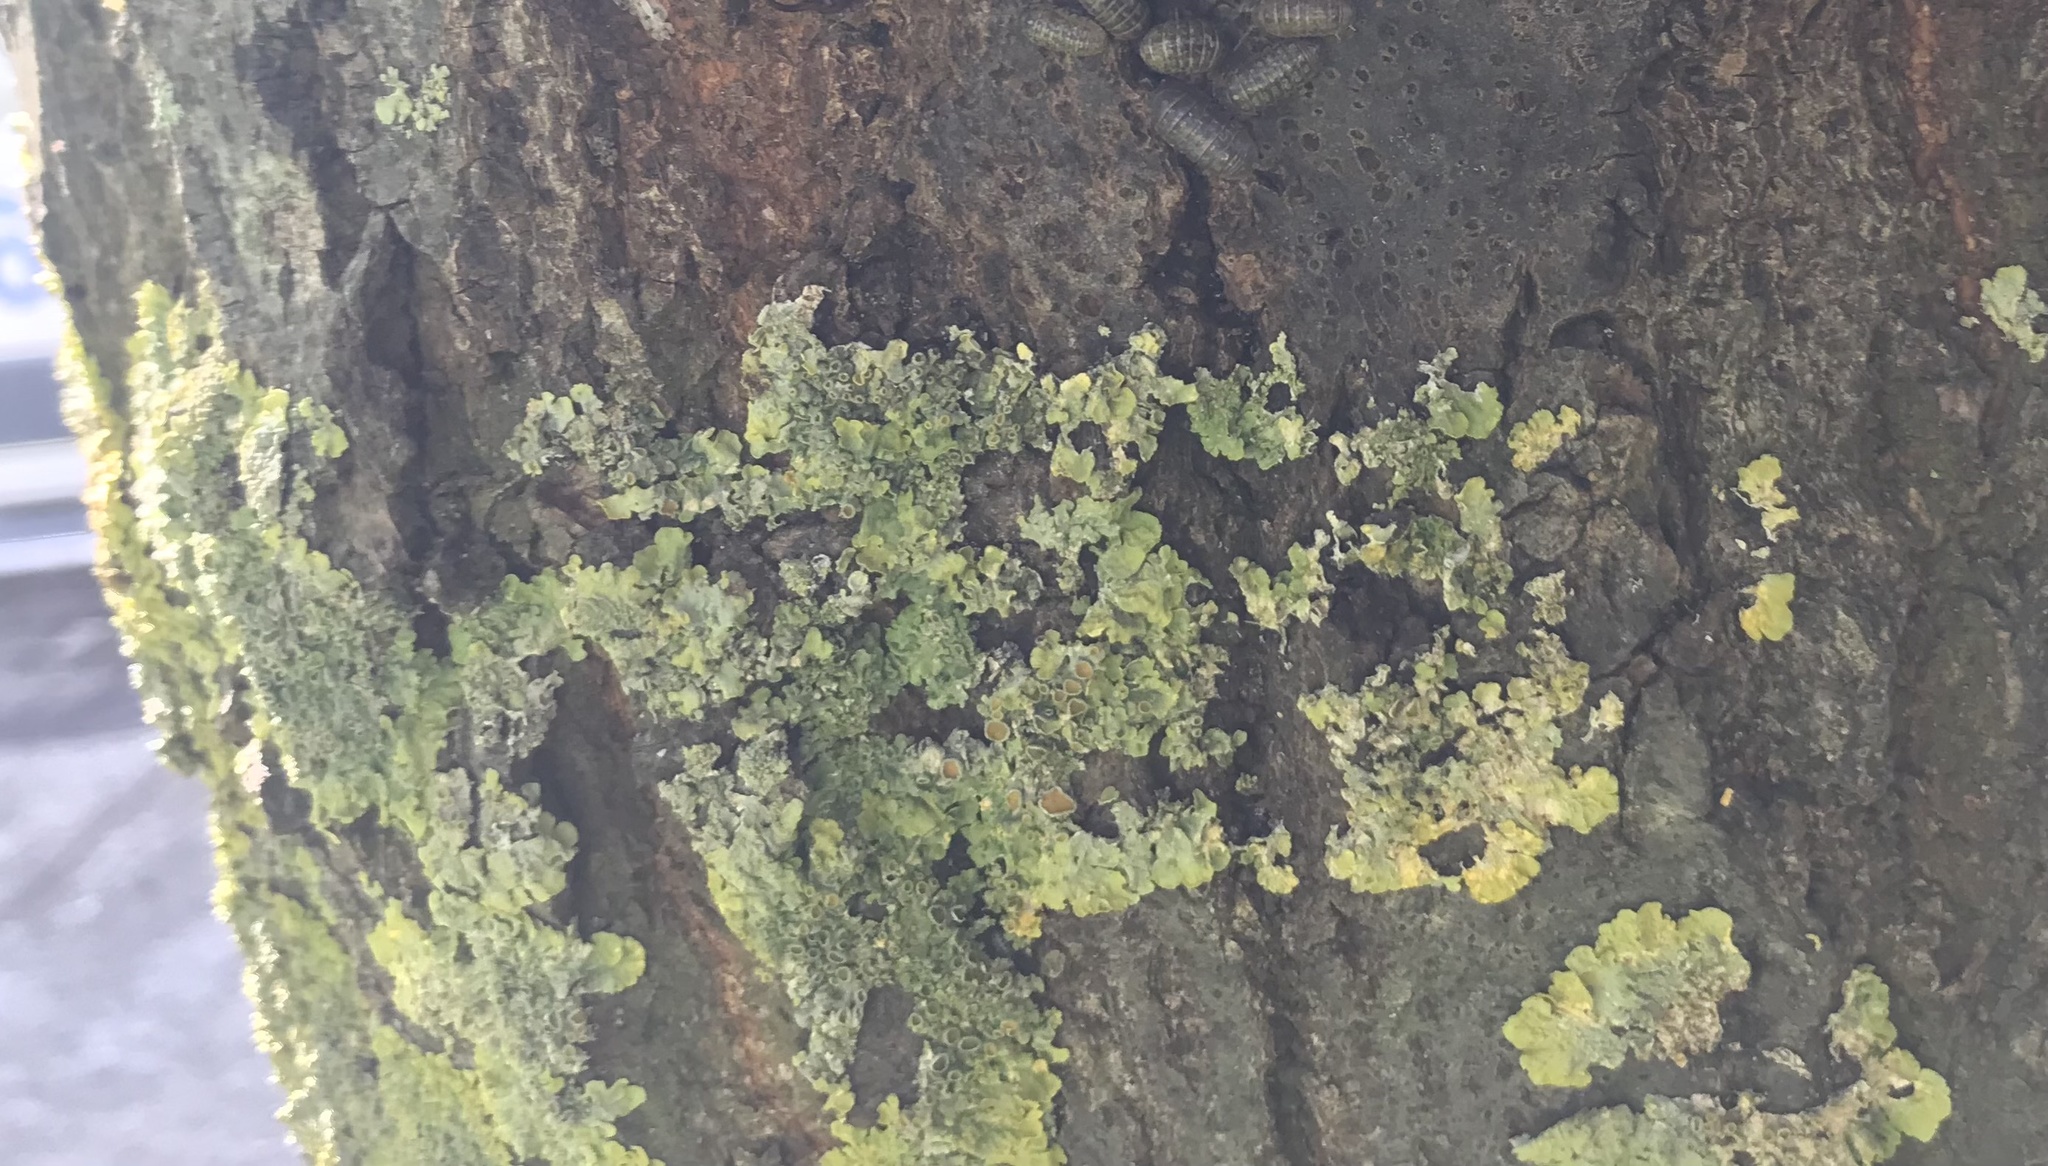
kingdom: Fungi
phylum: Ascomycota
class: Lecanoromycetes
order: Teloschistales
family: Teloschistaceae
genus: Xanthoria
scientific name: Xanthoria parietina
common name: Common orange lichen
